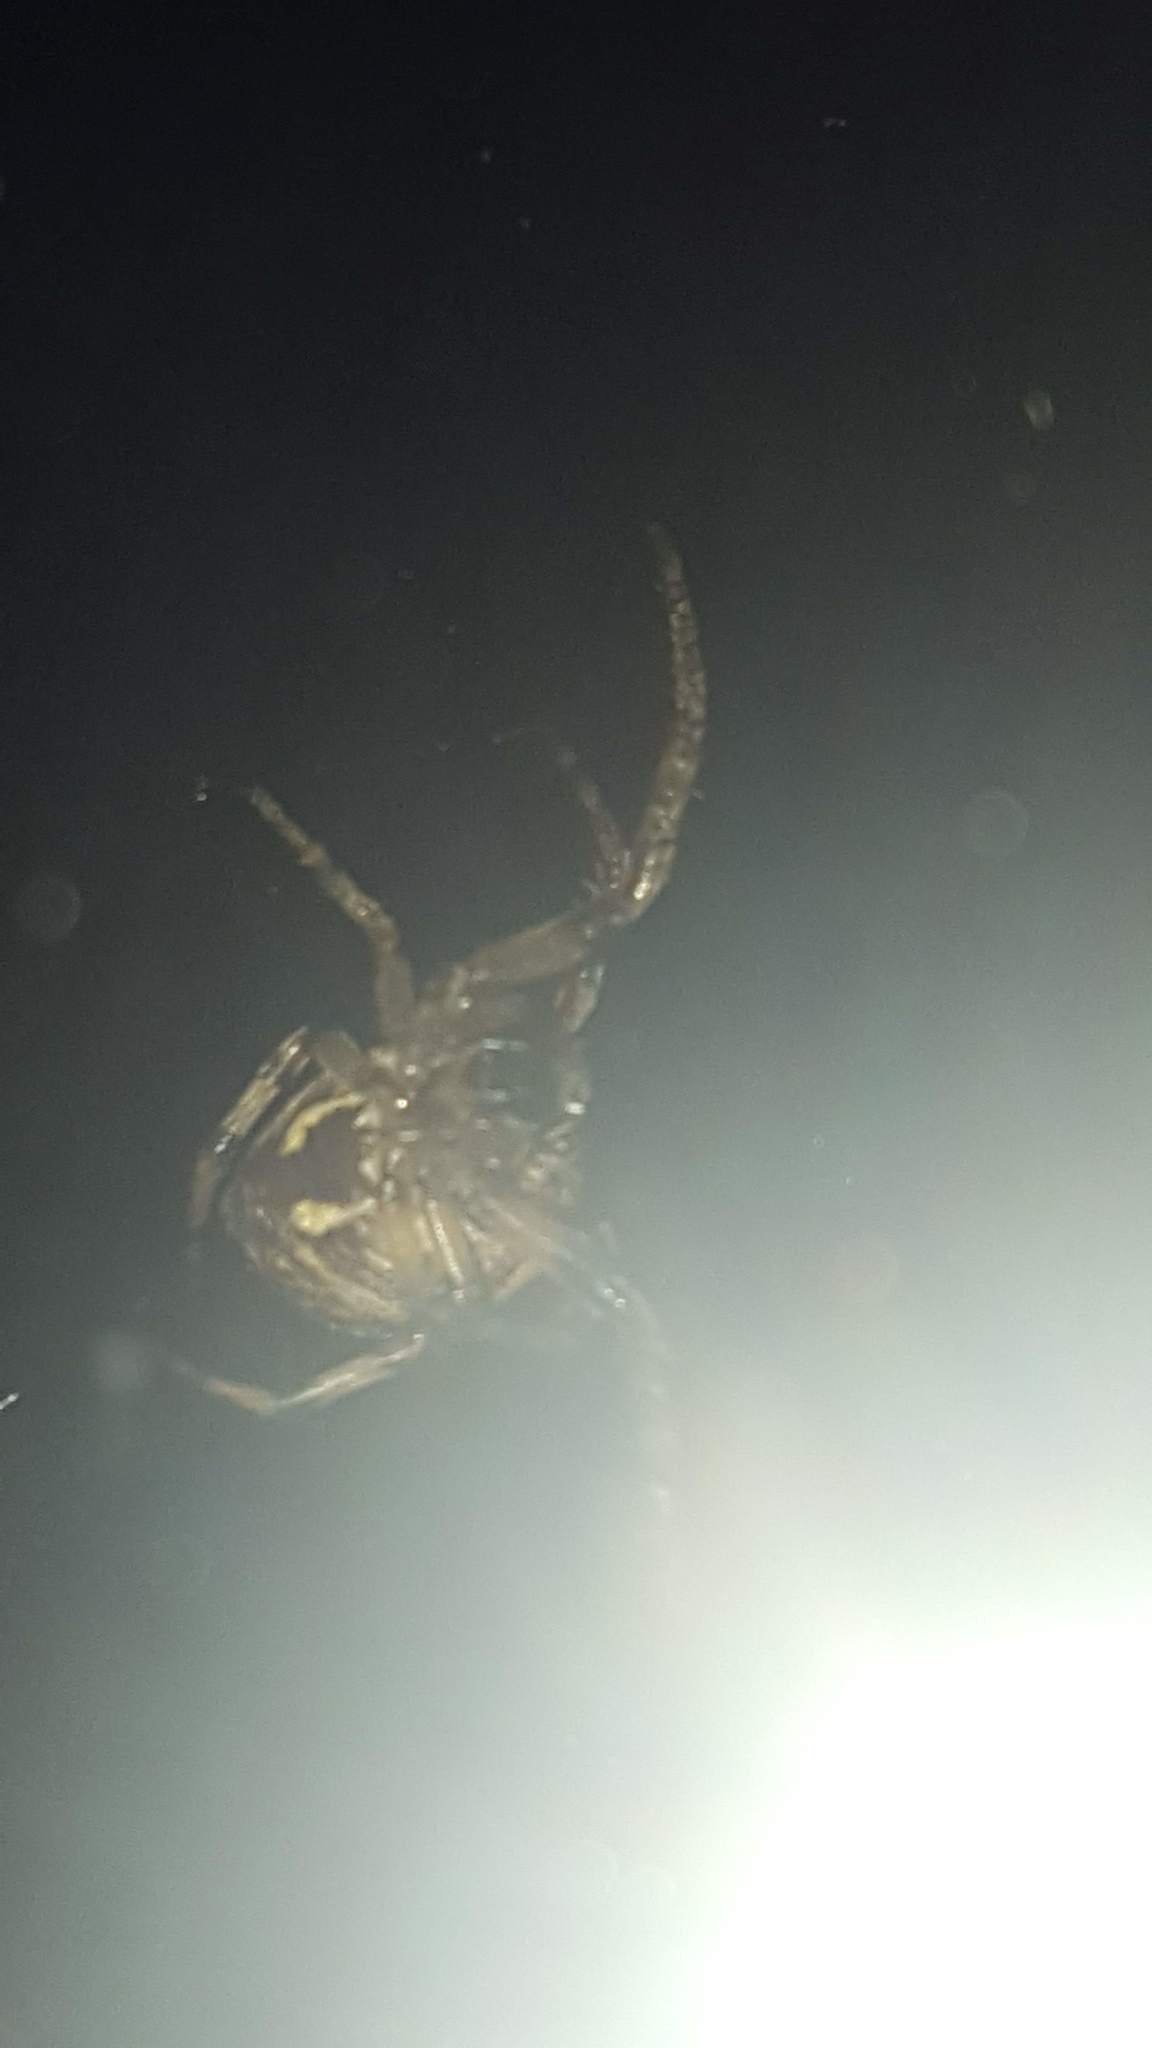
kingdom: Animalia
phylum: Arthropoda
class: Arachnida
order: Araneae
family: Araneidae
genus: Larinioides
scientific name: Larinioides cornutus
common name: Furrow orbweaver
